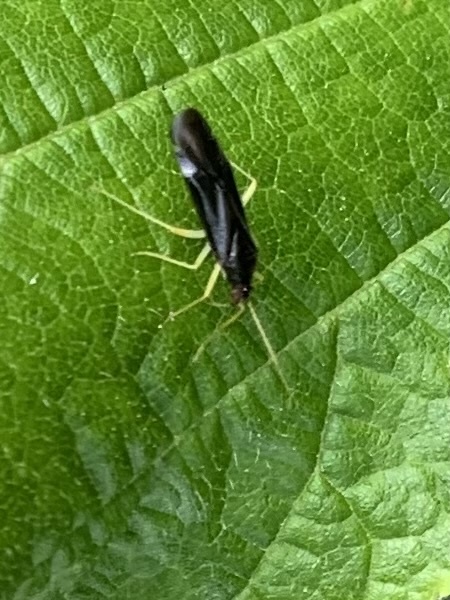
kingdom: Animalia
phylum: Arthropoda
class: Insecta
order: Hemiptera
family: Miridae
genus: Phylus
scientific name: Phylus coryli
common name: Plant bug
